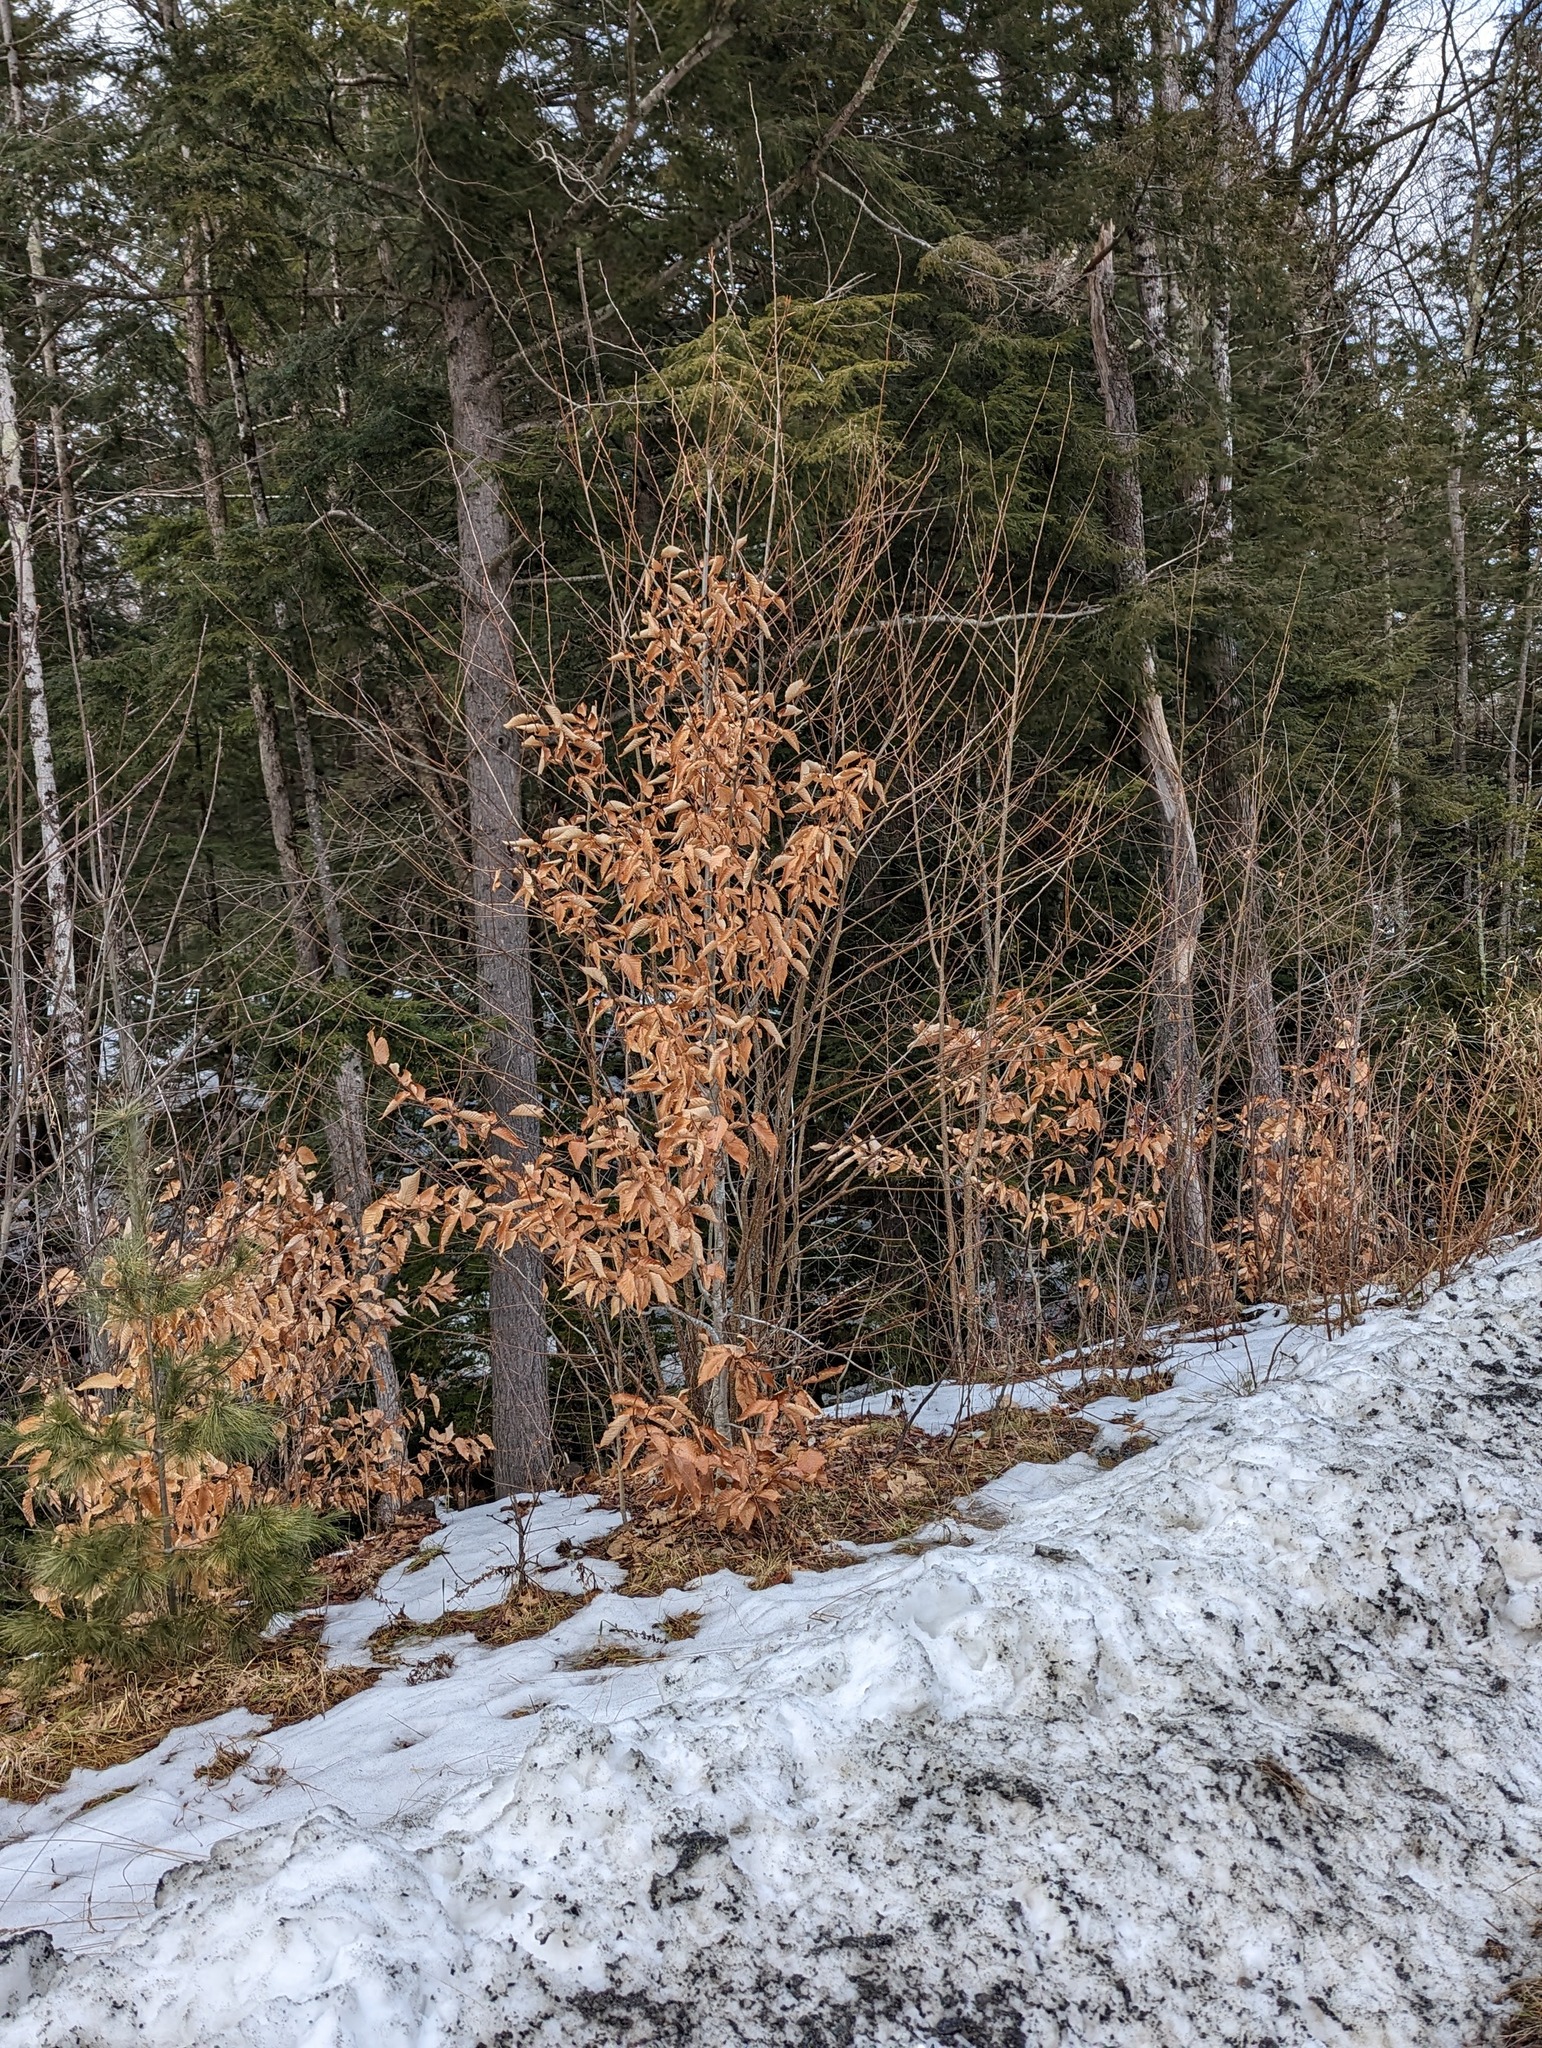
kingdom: Plantae
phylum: Tracheophyta
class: Magnoliopsida
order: Fagales
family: Fagaceae
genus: Fagus
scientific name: Fagus grandifolia
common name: American beech
